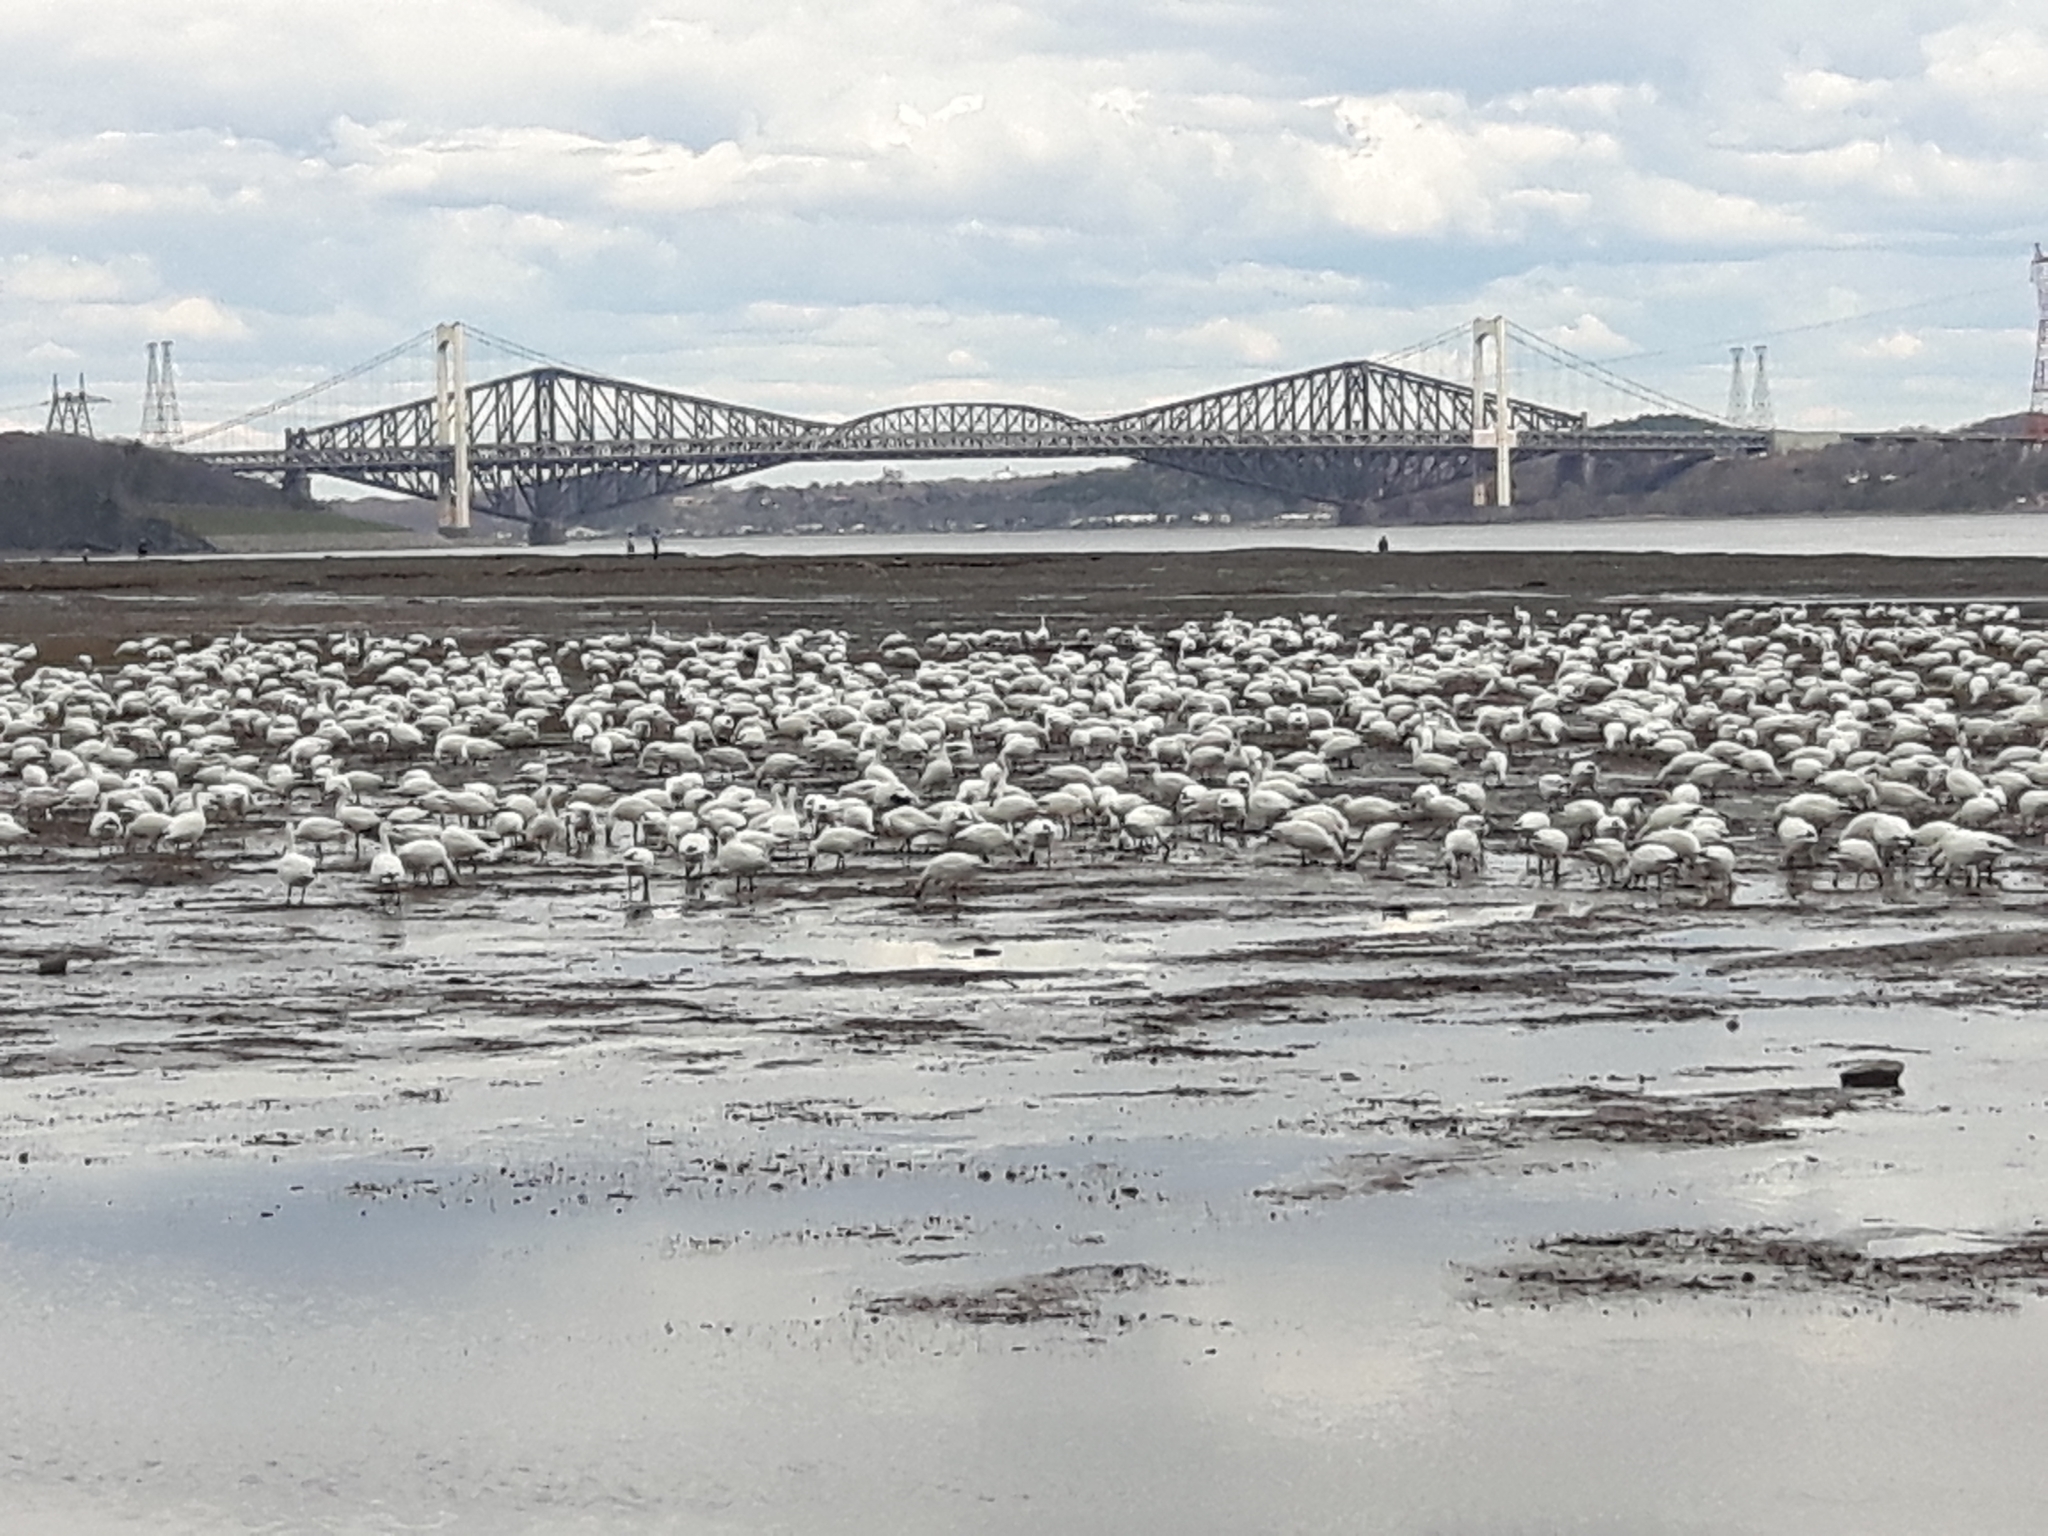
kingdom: Animalia
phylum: Chordata
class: Aves
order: Anseriformes
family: Anatidae
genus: Anser
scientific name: Anser caerulescens
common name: Snow goose
